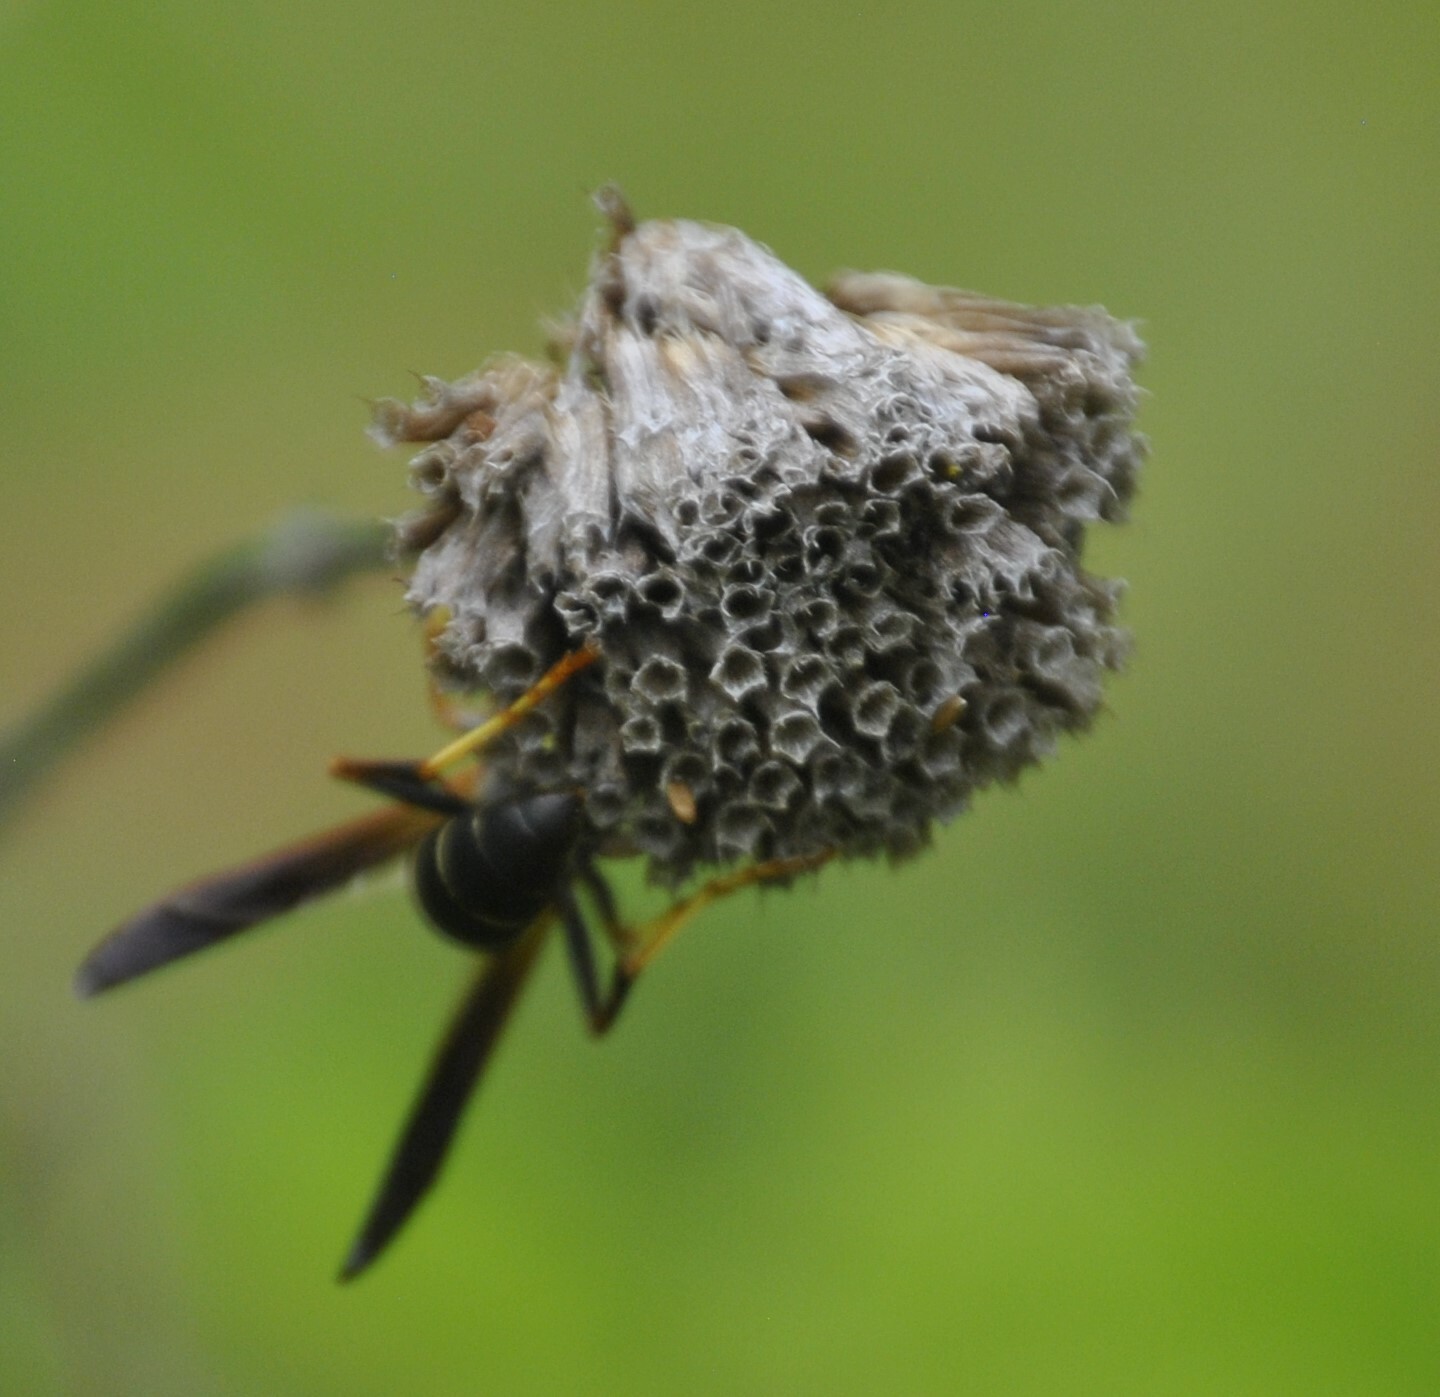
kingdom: Animalia
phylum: Arthropoda
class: Insecta
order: Hymenoptera
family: Eumenidae
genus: Polistes
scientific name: Polistes fuscatus
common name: Dark paper wasp
